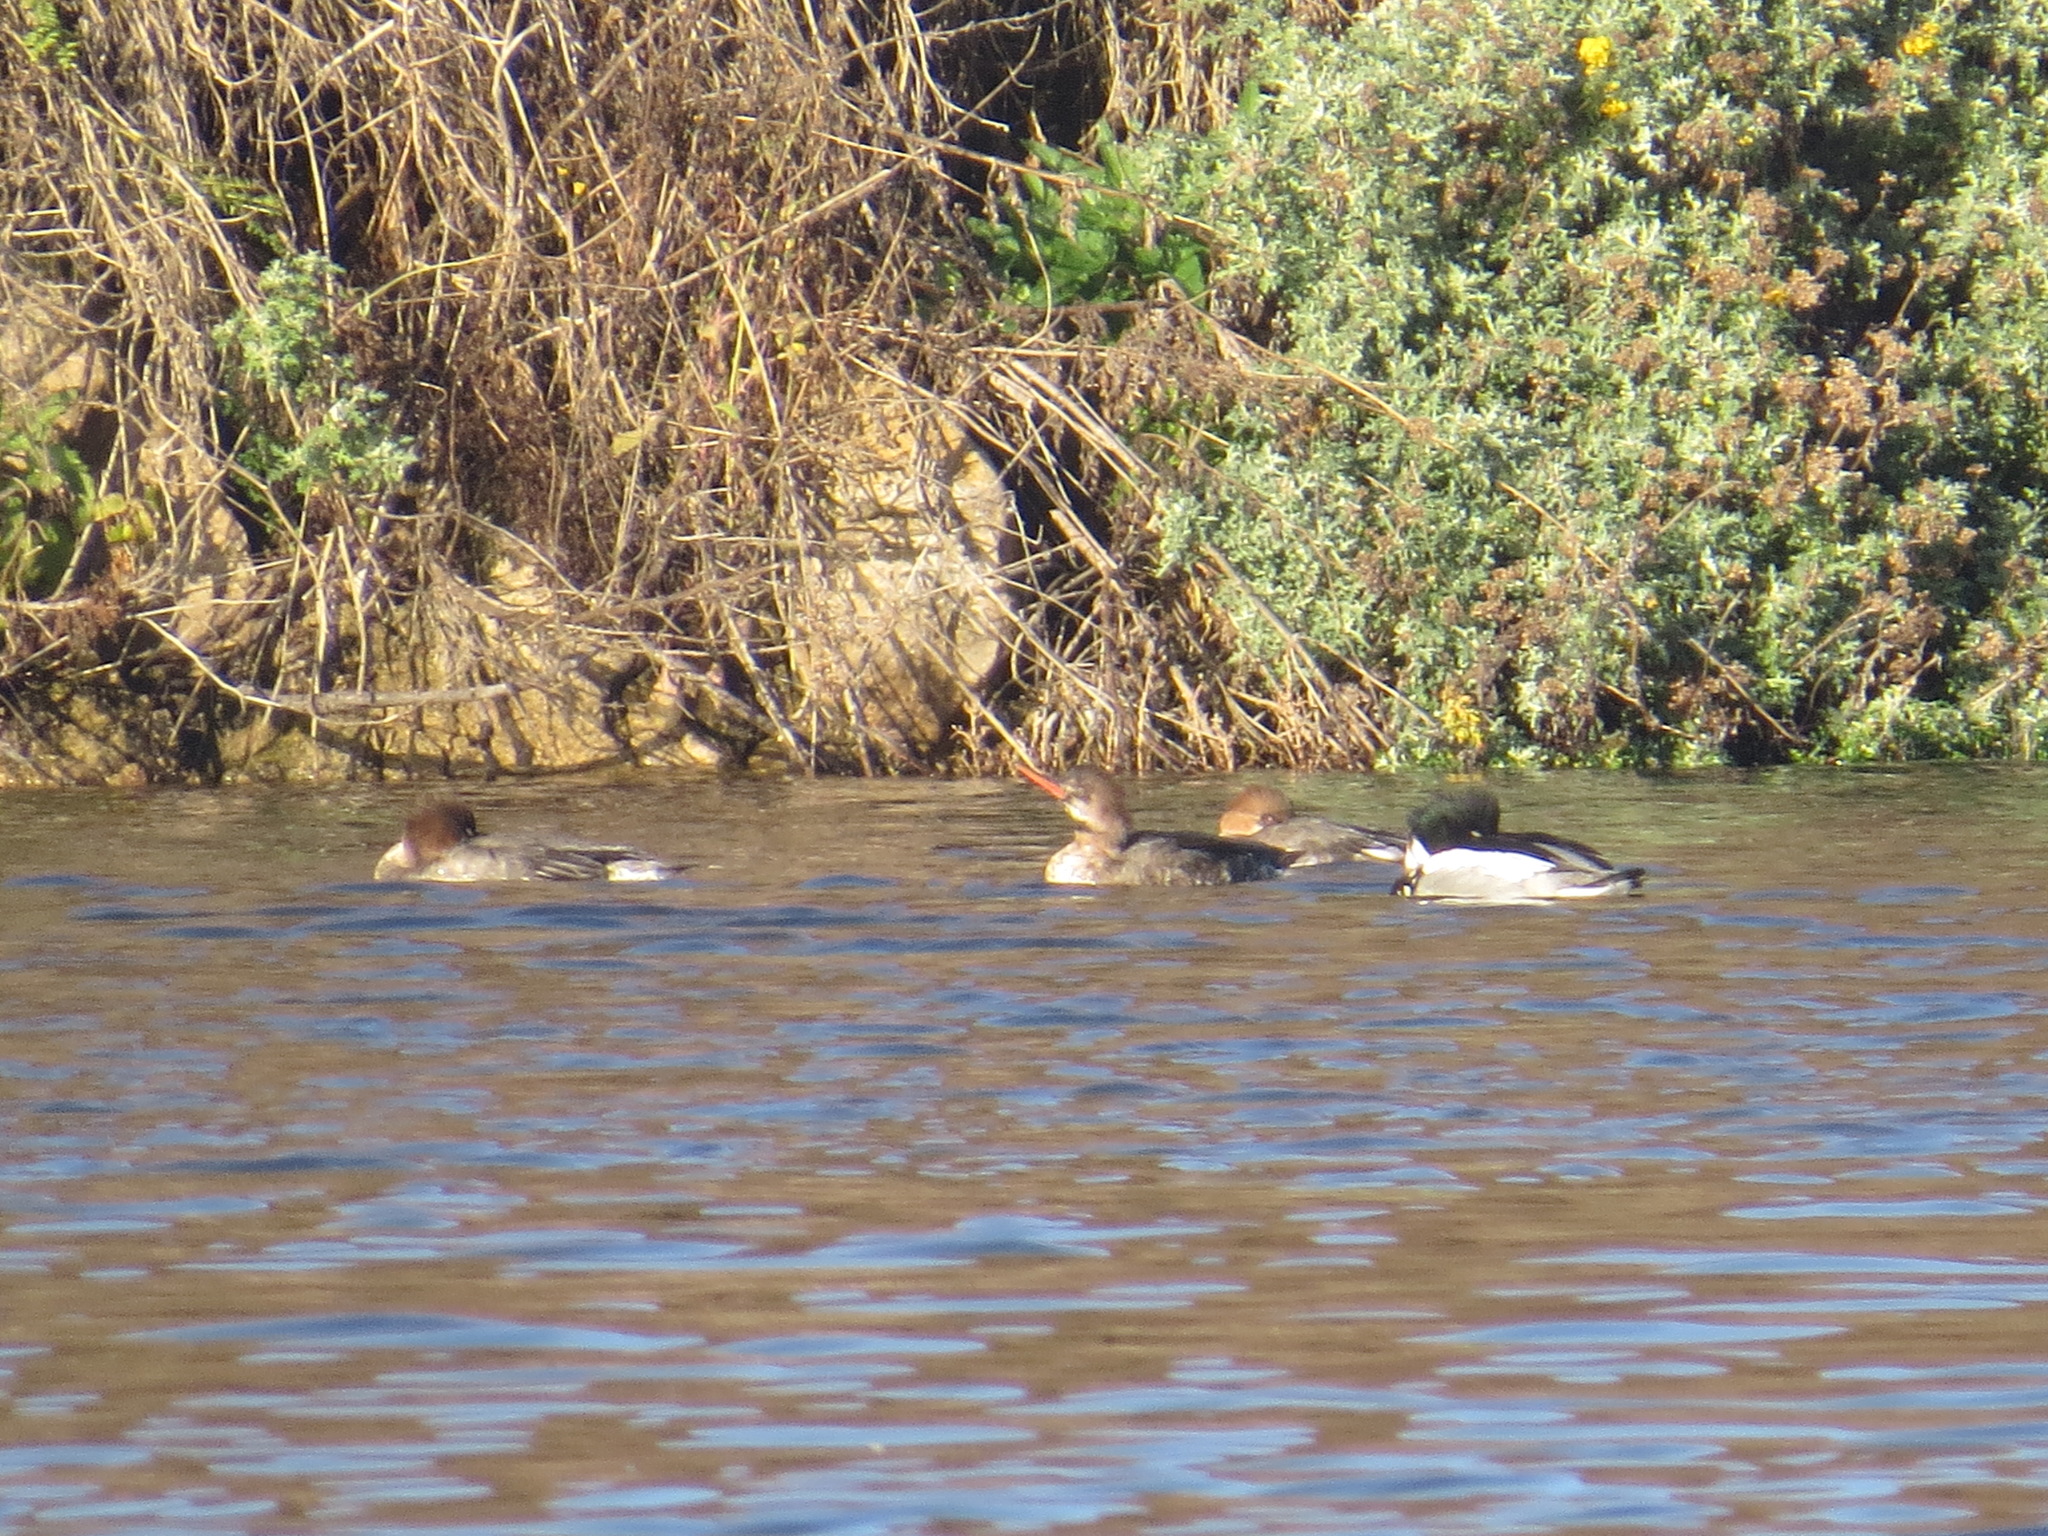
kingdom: Animalia
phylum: Chordata
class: Aves
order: Anseriformes
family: Anatidae
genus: Mergus
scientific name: Mergus serrator
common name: Red-breasted merganser
